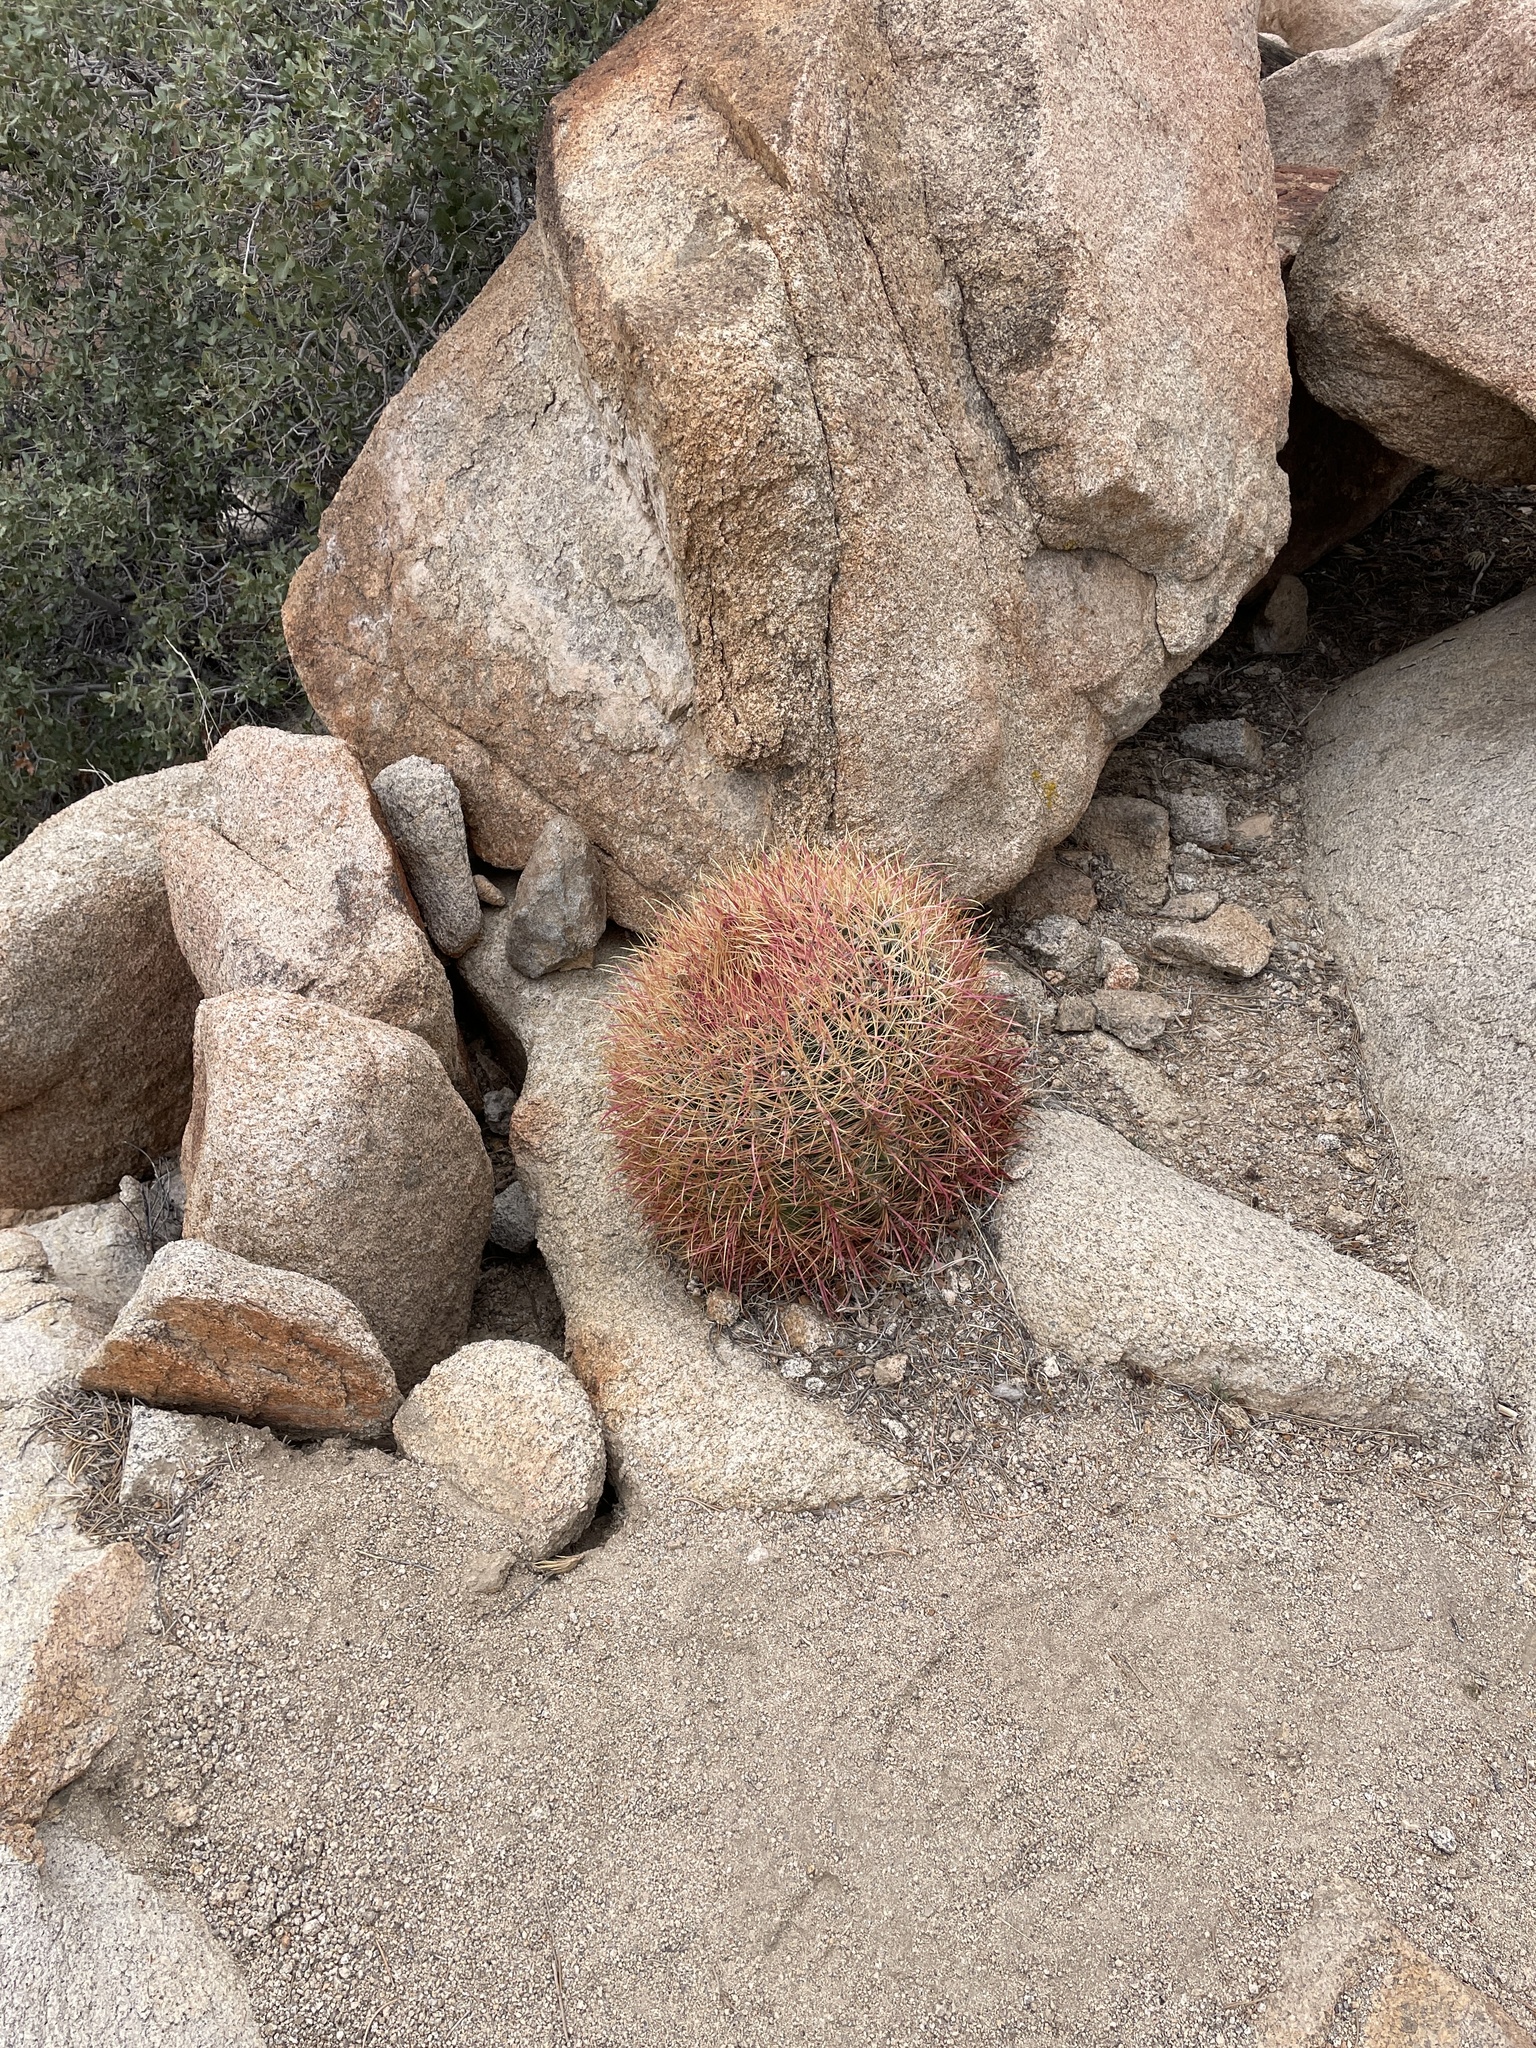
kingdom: Plantae
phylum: Tracheophyta
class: Magnoliopsida
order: Caryophyllales
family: Cactaceae
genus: Ferocactus
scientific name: Ferocactus cylindraceus
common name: California barrel cactus
